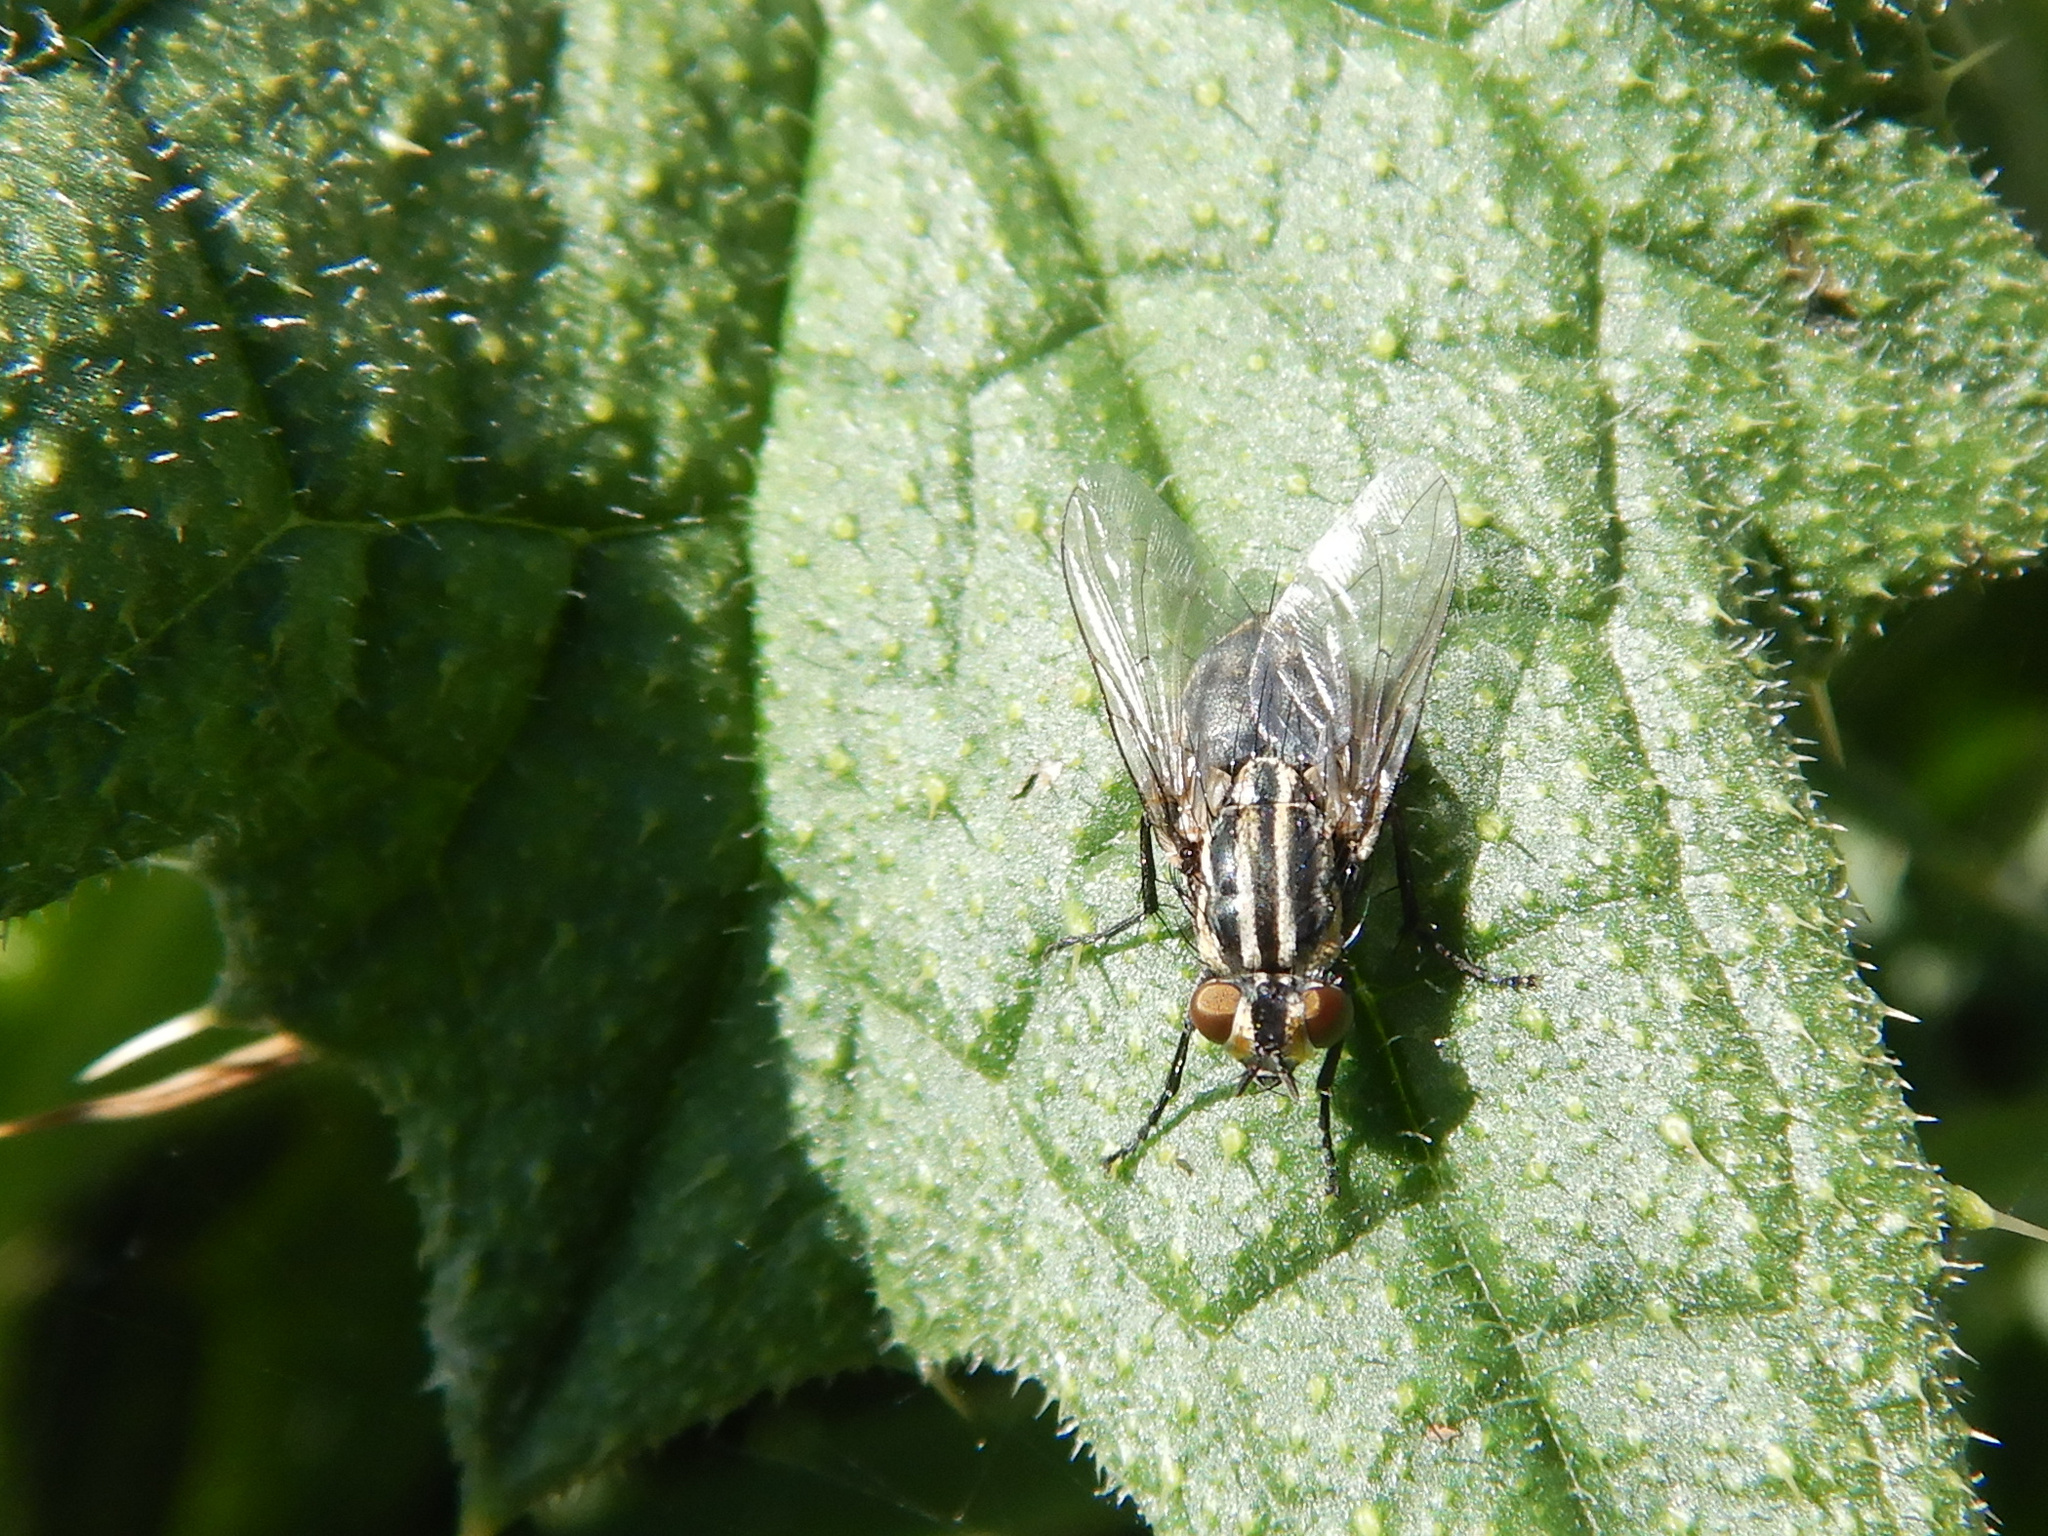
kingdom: Animalia
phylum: Arthropoda
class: Insecta
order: Diptera
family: Sarcophagidae
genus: Oxysarcodexia
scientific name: Oxysarcodexia varia
